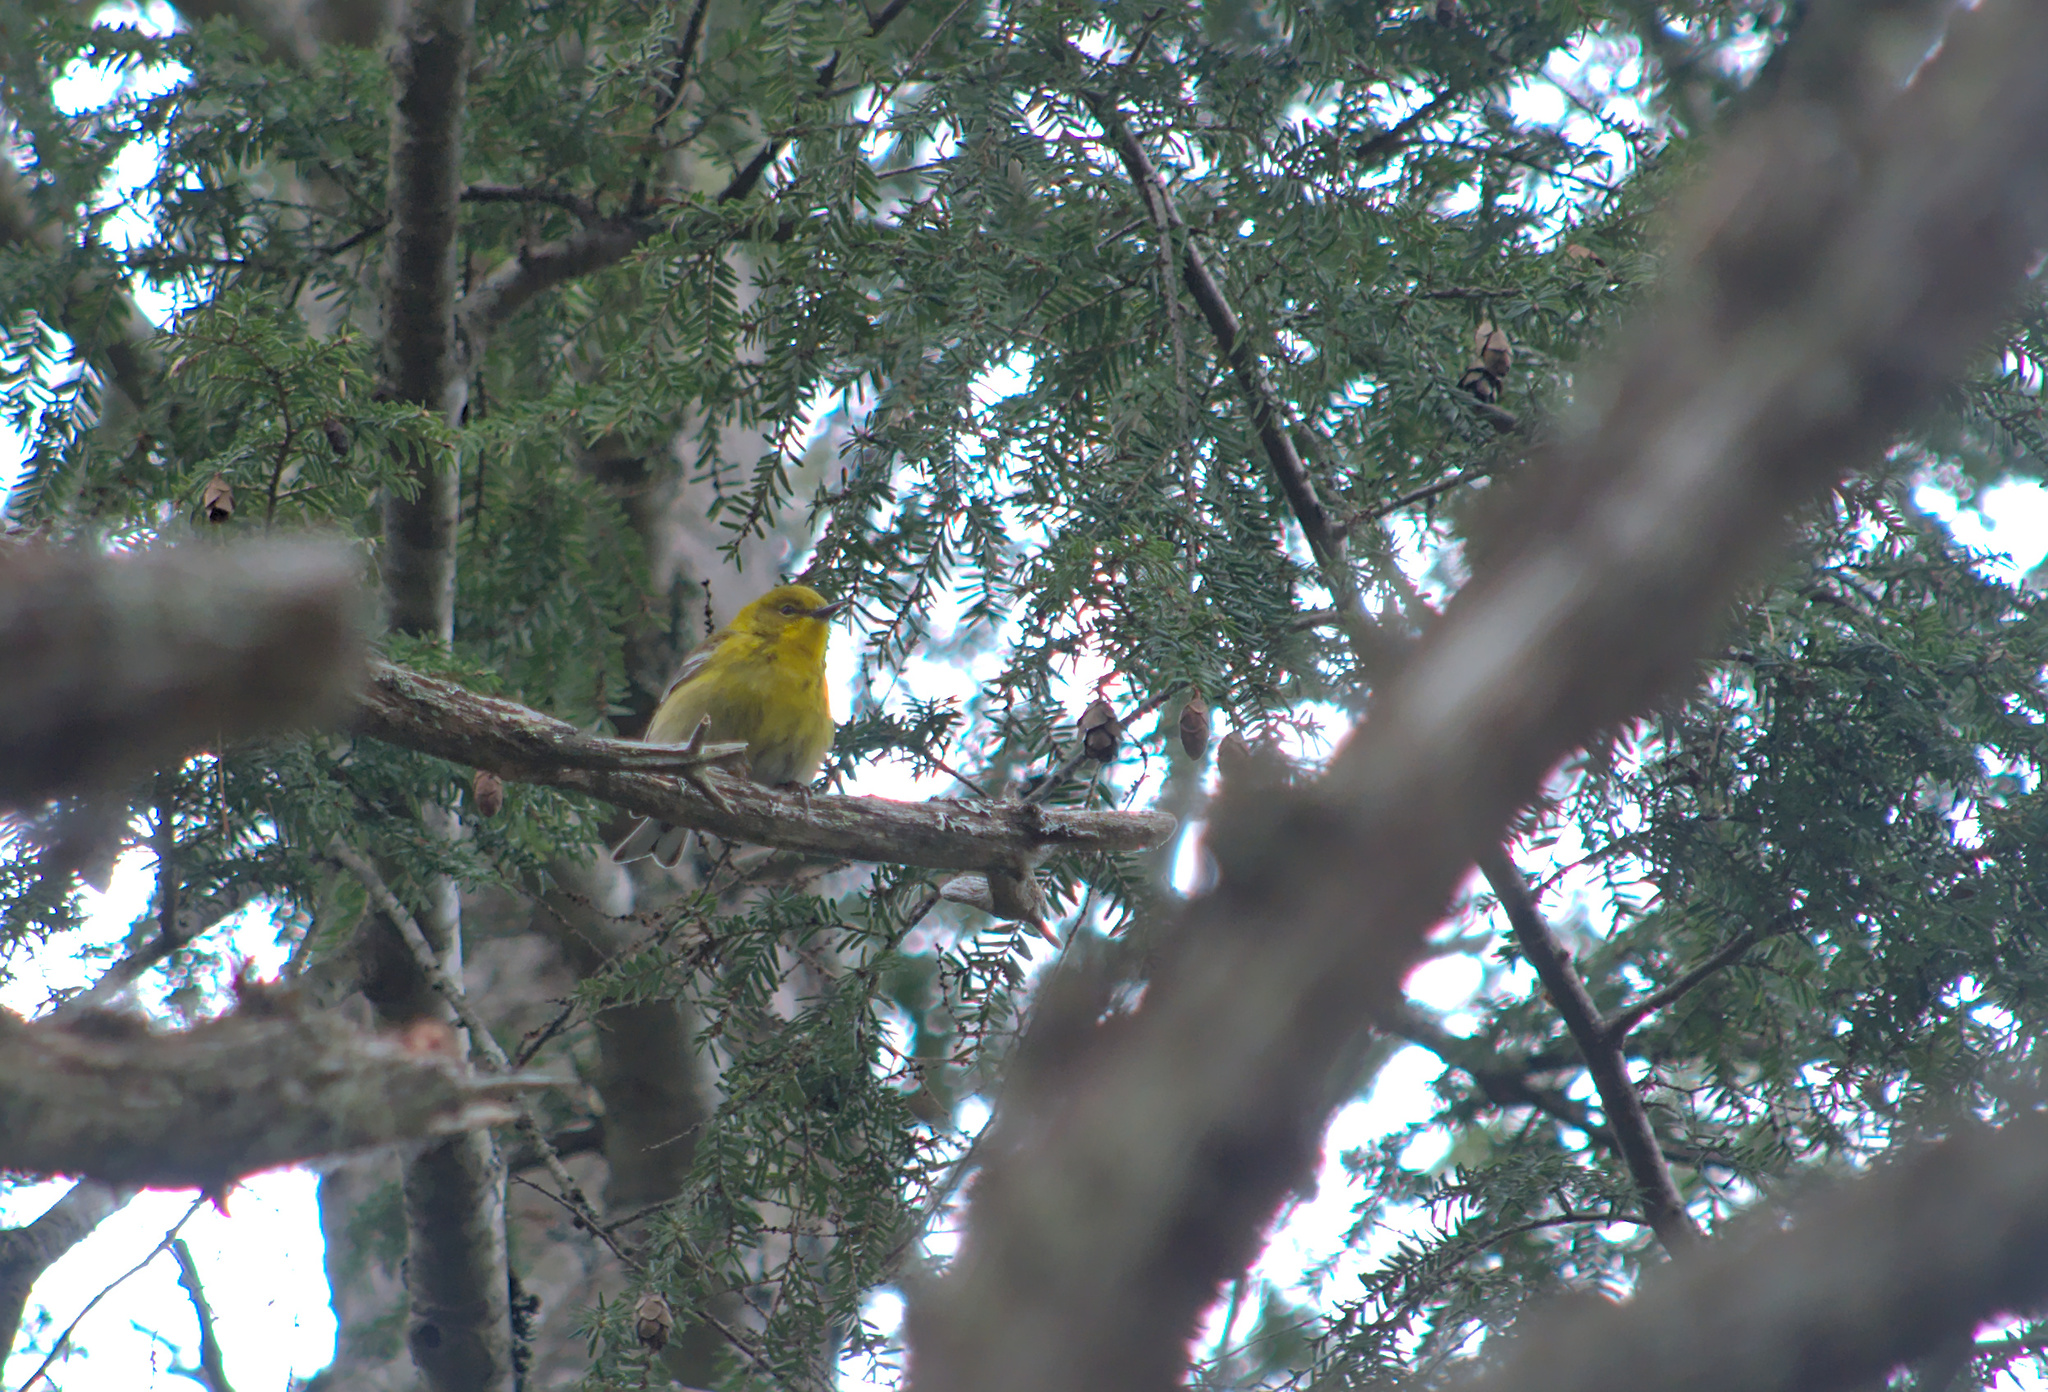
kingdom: Animalia
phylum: Chordata
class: Aves
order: Passeriformes
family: Parulidae
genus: Setophaga
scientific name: Setophaga pinus
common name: Pine warbler
